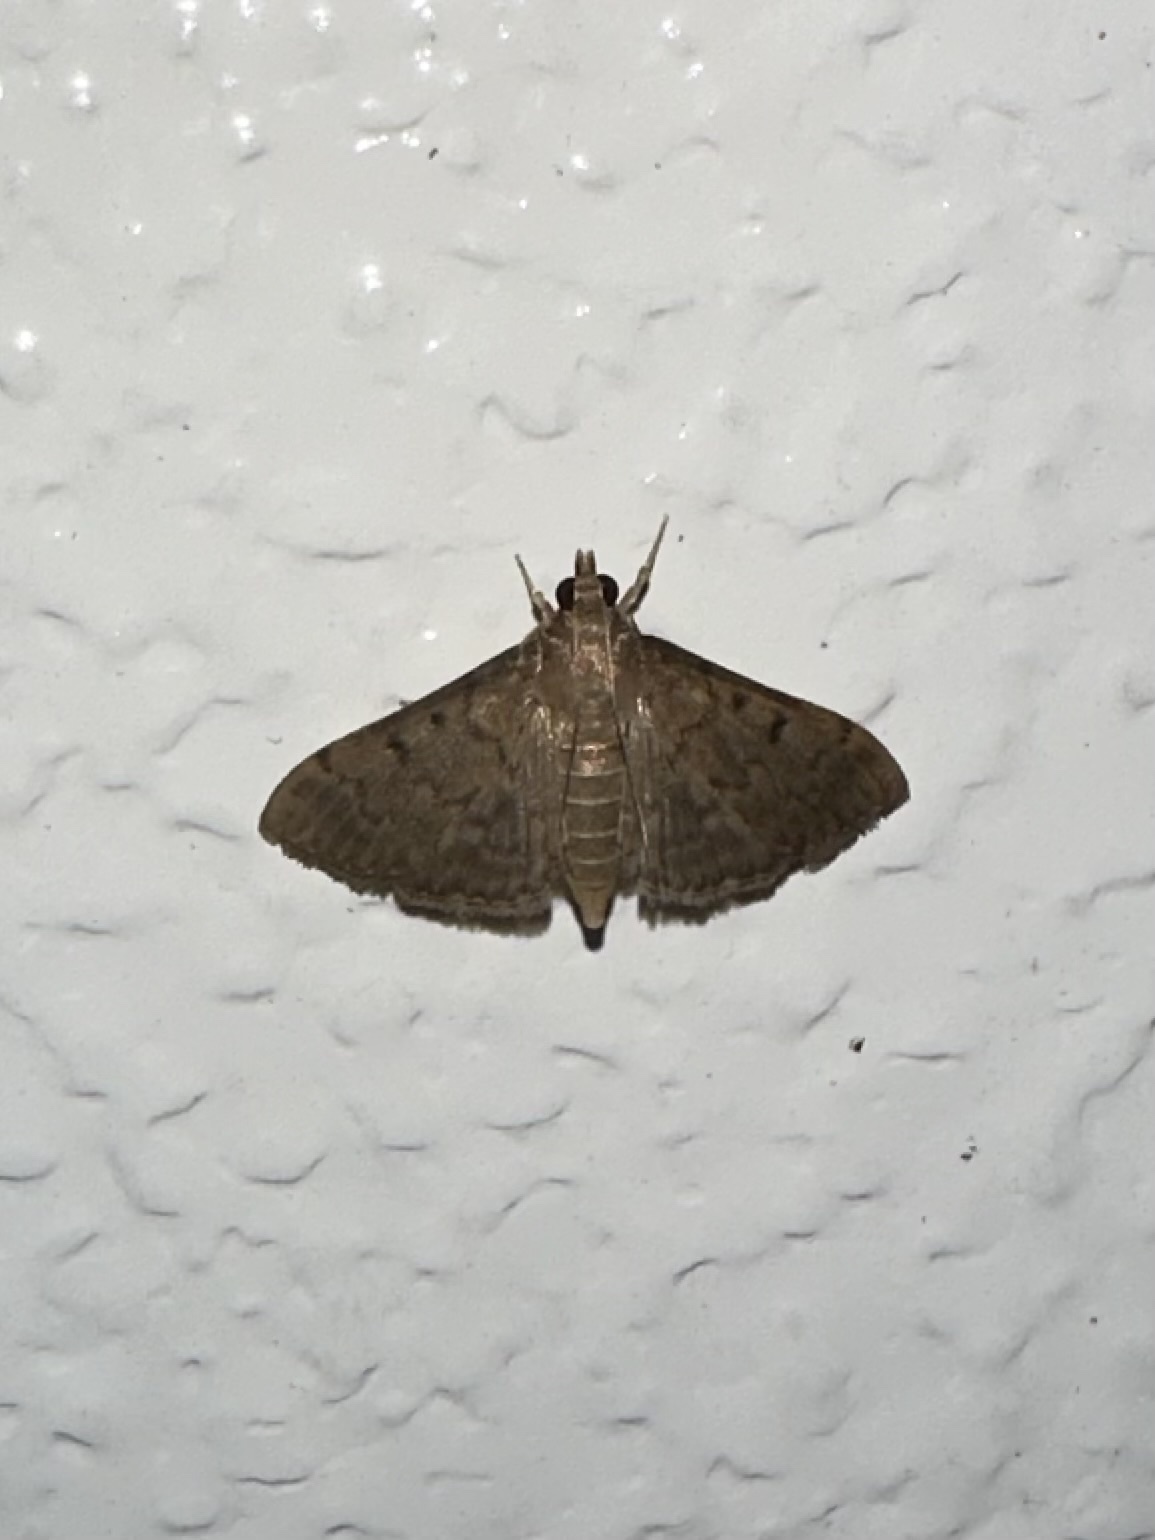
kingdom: Animalia
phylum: Arthropoda
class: Insecta
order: Lepidoptera
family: Crambidae
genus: Herpetogramma
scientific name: Herpetogramma phaeopteralis
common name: Dusky herpetogramma moth
